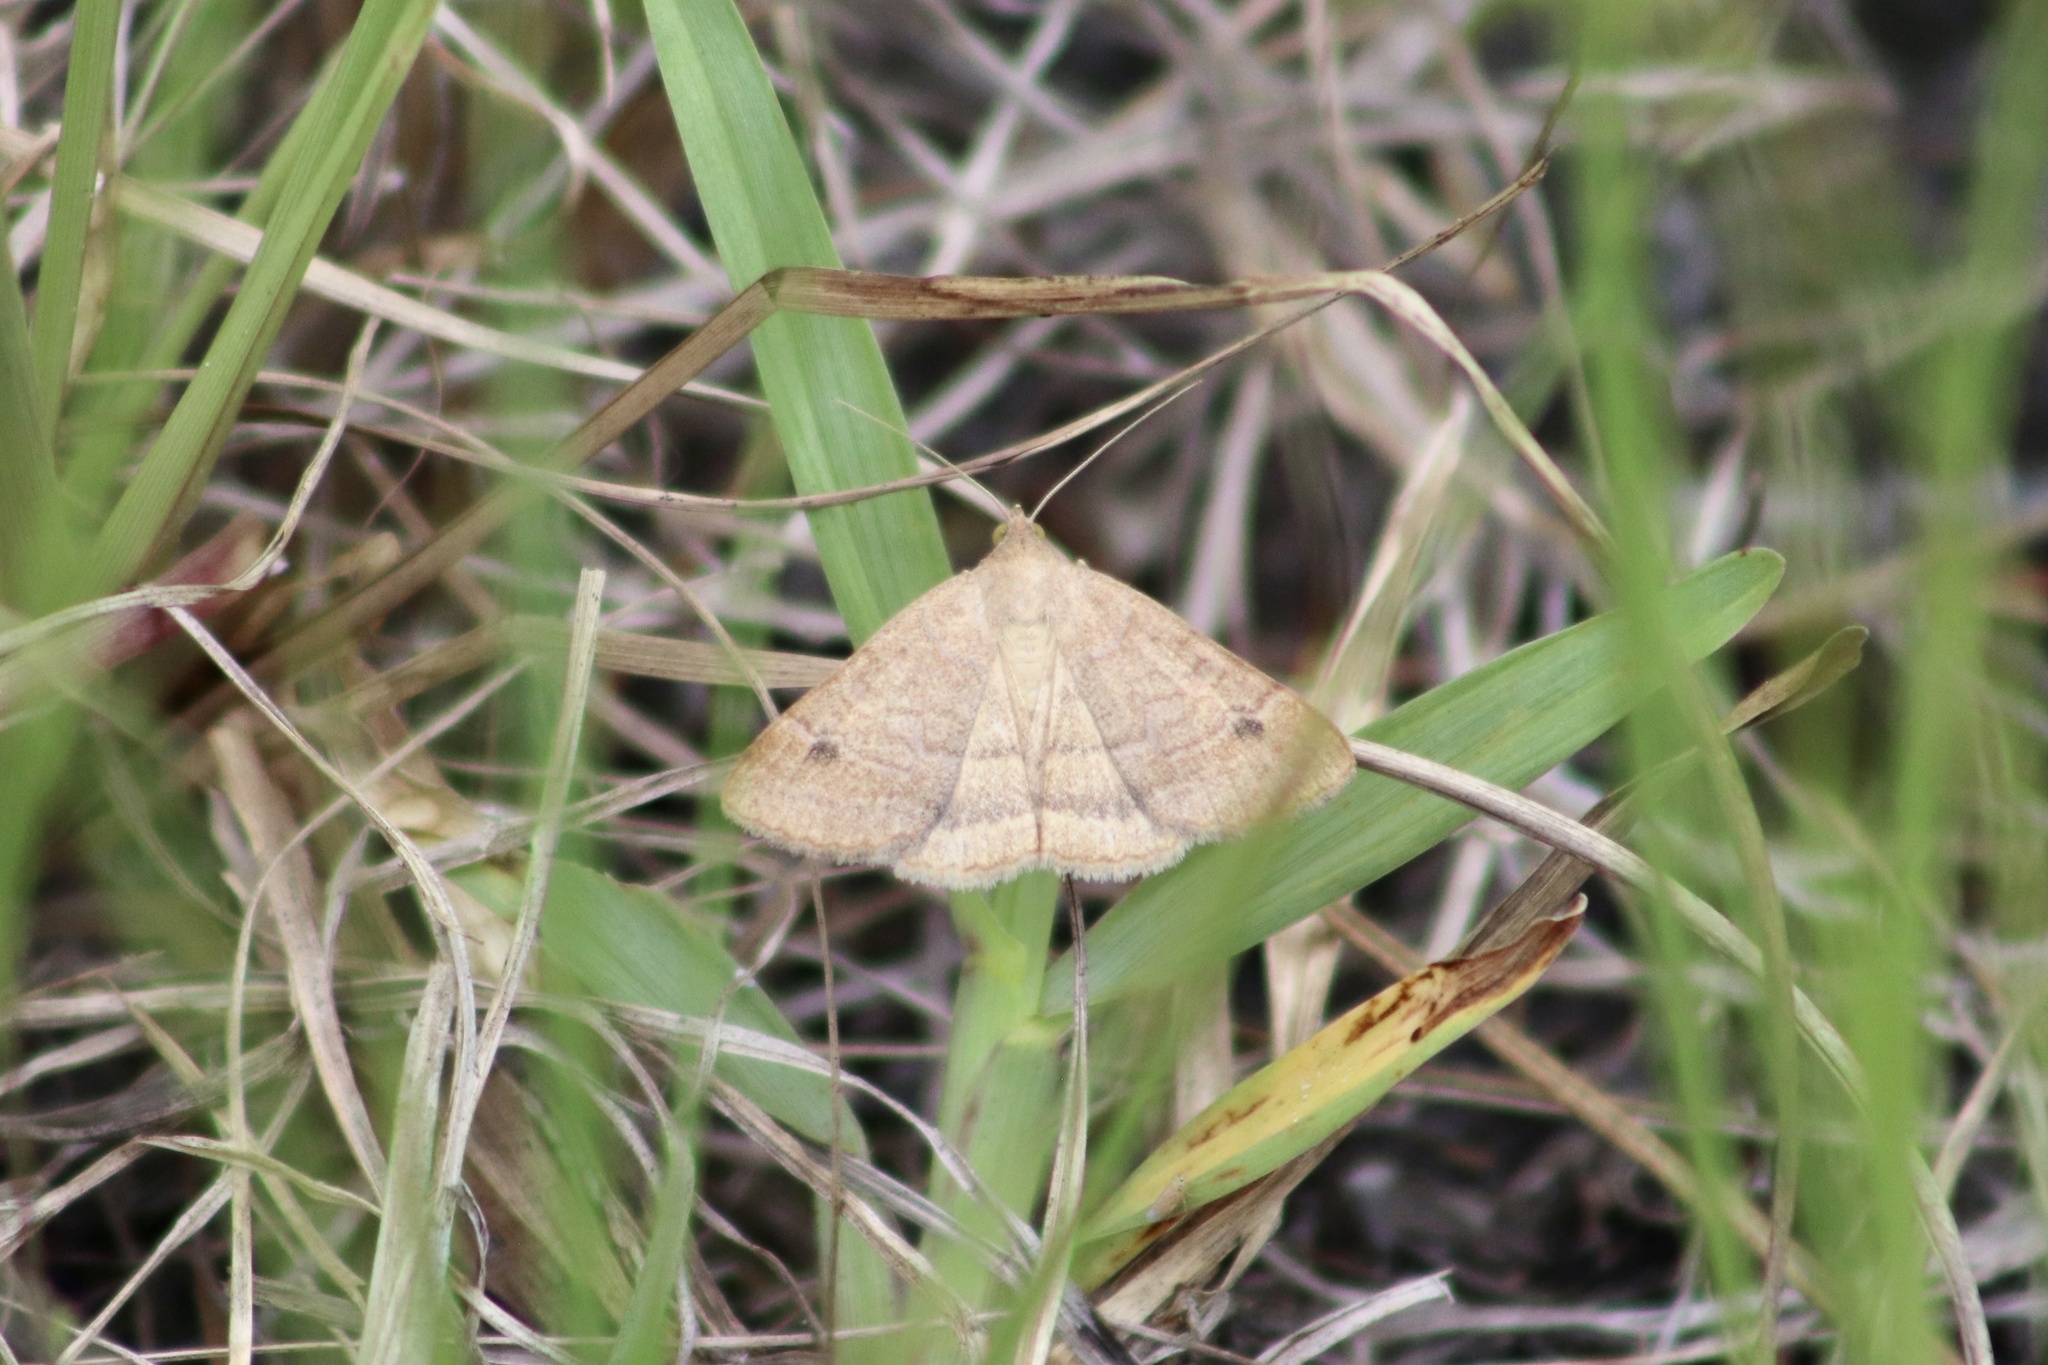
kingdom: Animalia
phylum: Arthropoda
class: Insecta
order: Lepidoptera
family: Erebidae
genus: Caenurgia
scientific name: Caenurgia chloropha
